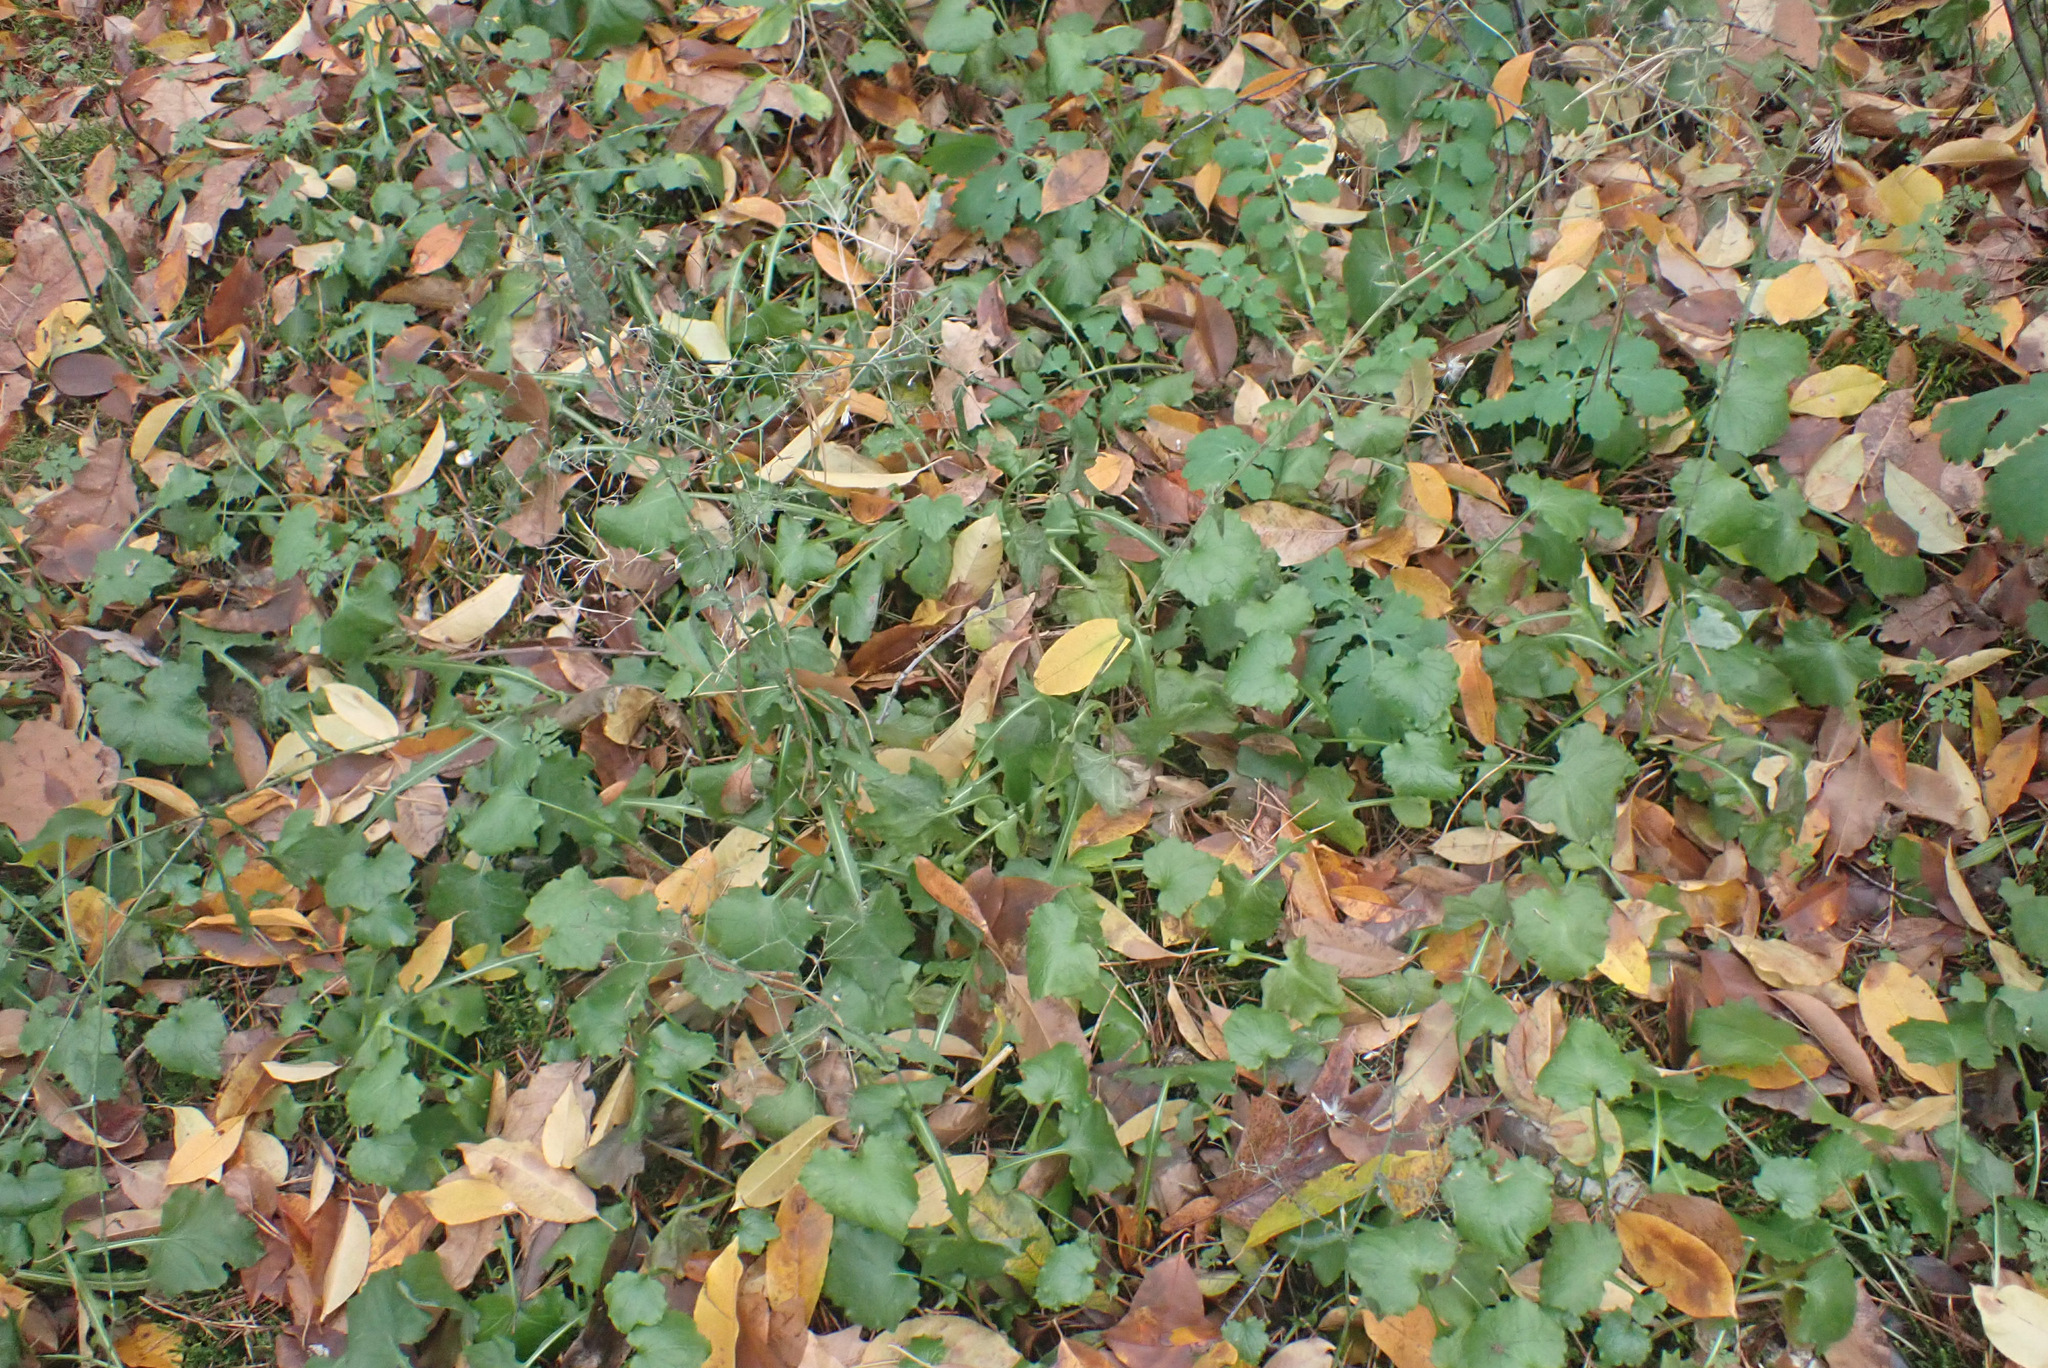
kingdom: Plantae
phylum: Tracheophyta
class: Magnoliopsida
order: Asterales
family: Asteraceae
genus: Lapsana
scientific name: Lapsana communis
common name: Nipplewort
